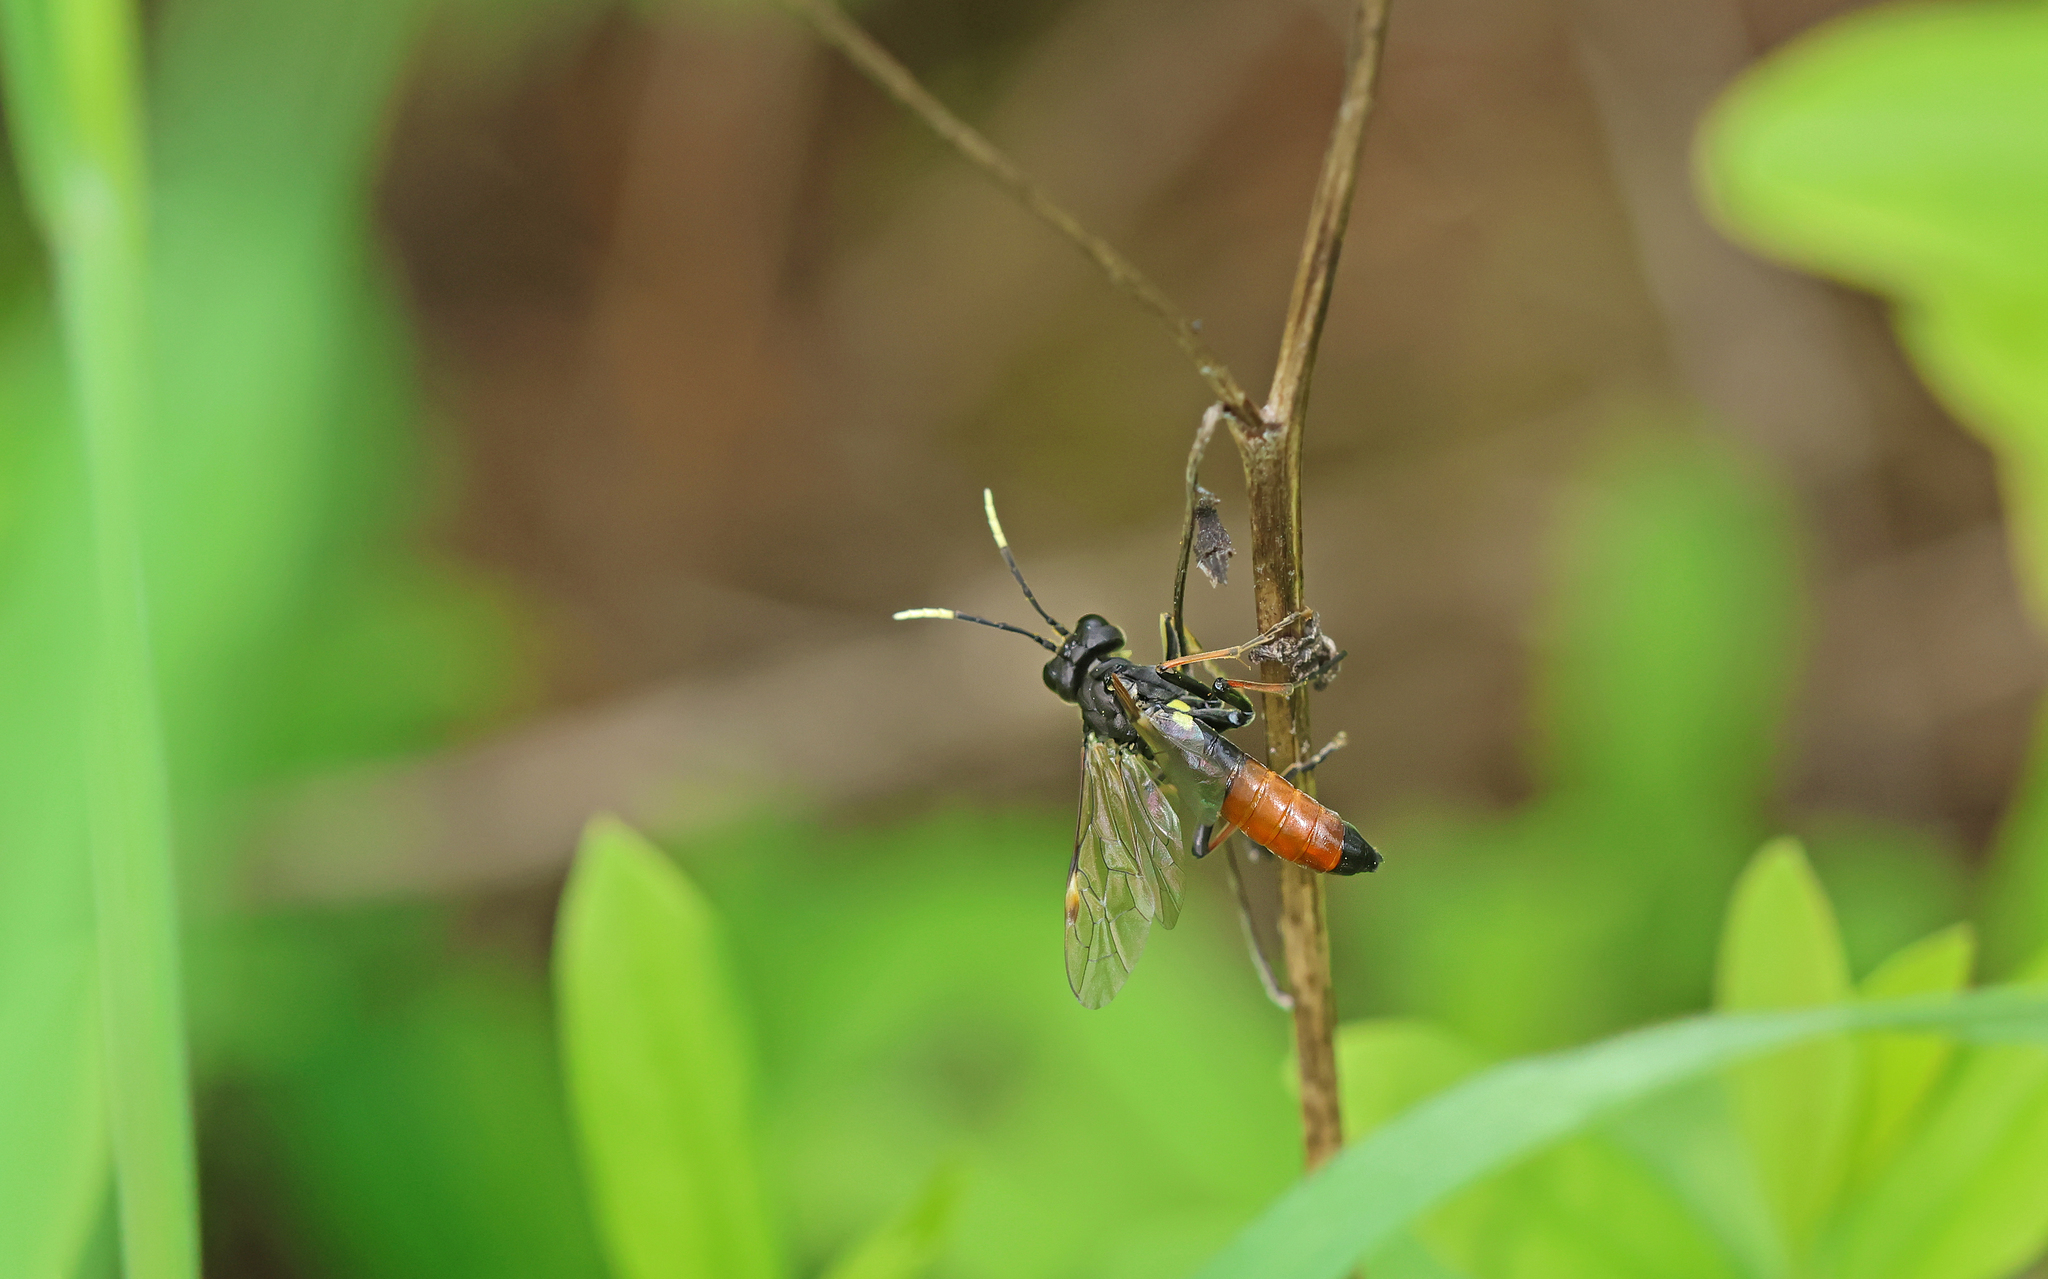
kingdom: Animalia
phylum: Arthropoda
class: Insecta
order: Hymenoptera
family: Tenthredinidae
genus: Tenthredo
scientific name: Tenthredo solitaria
